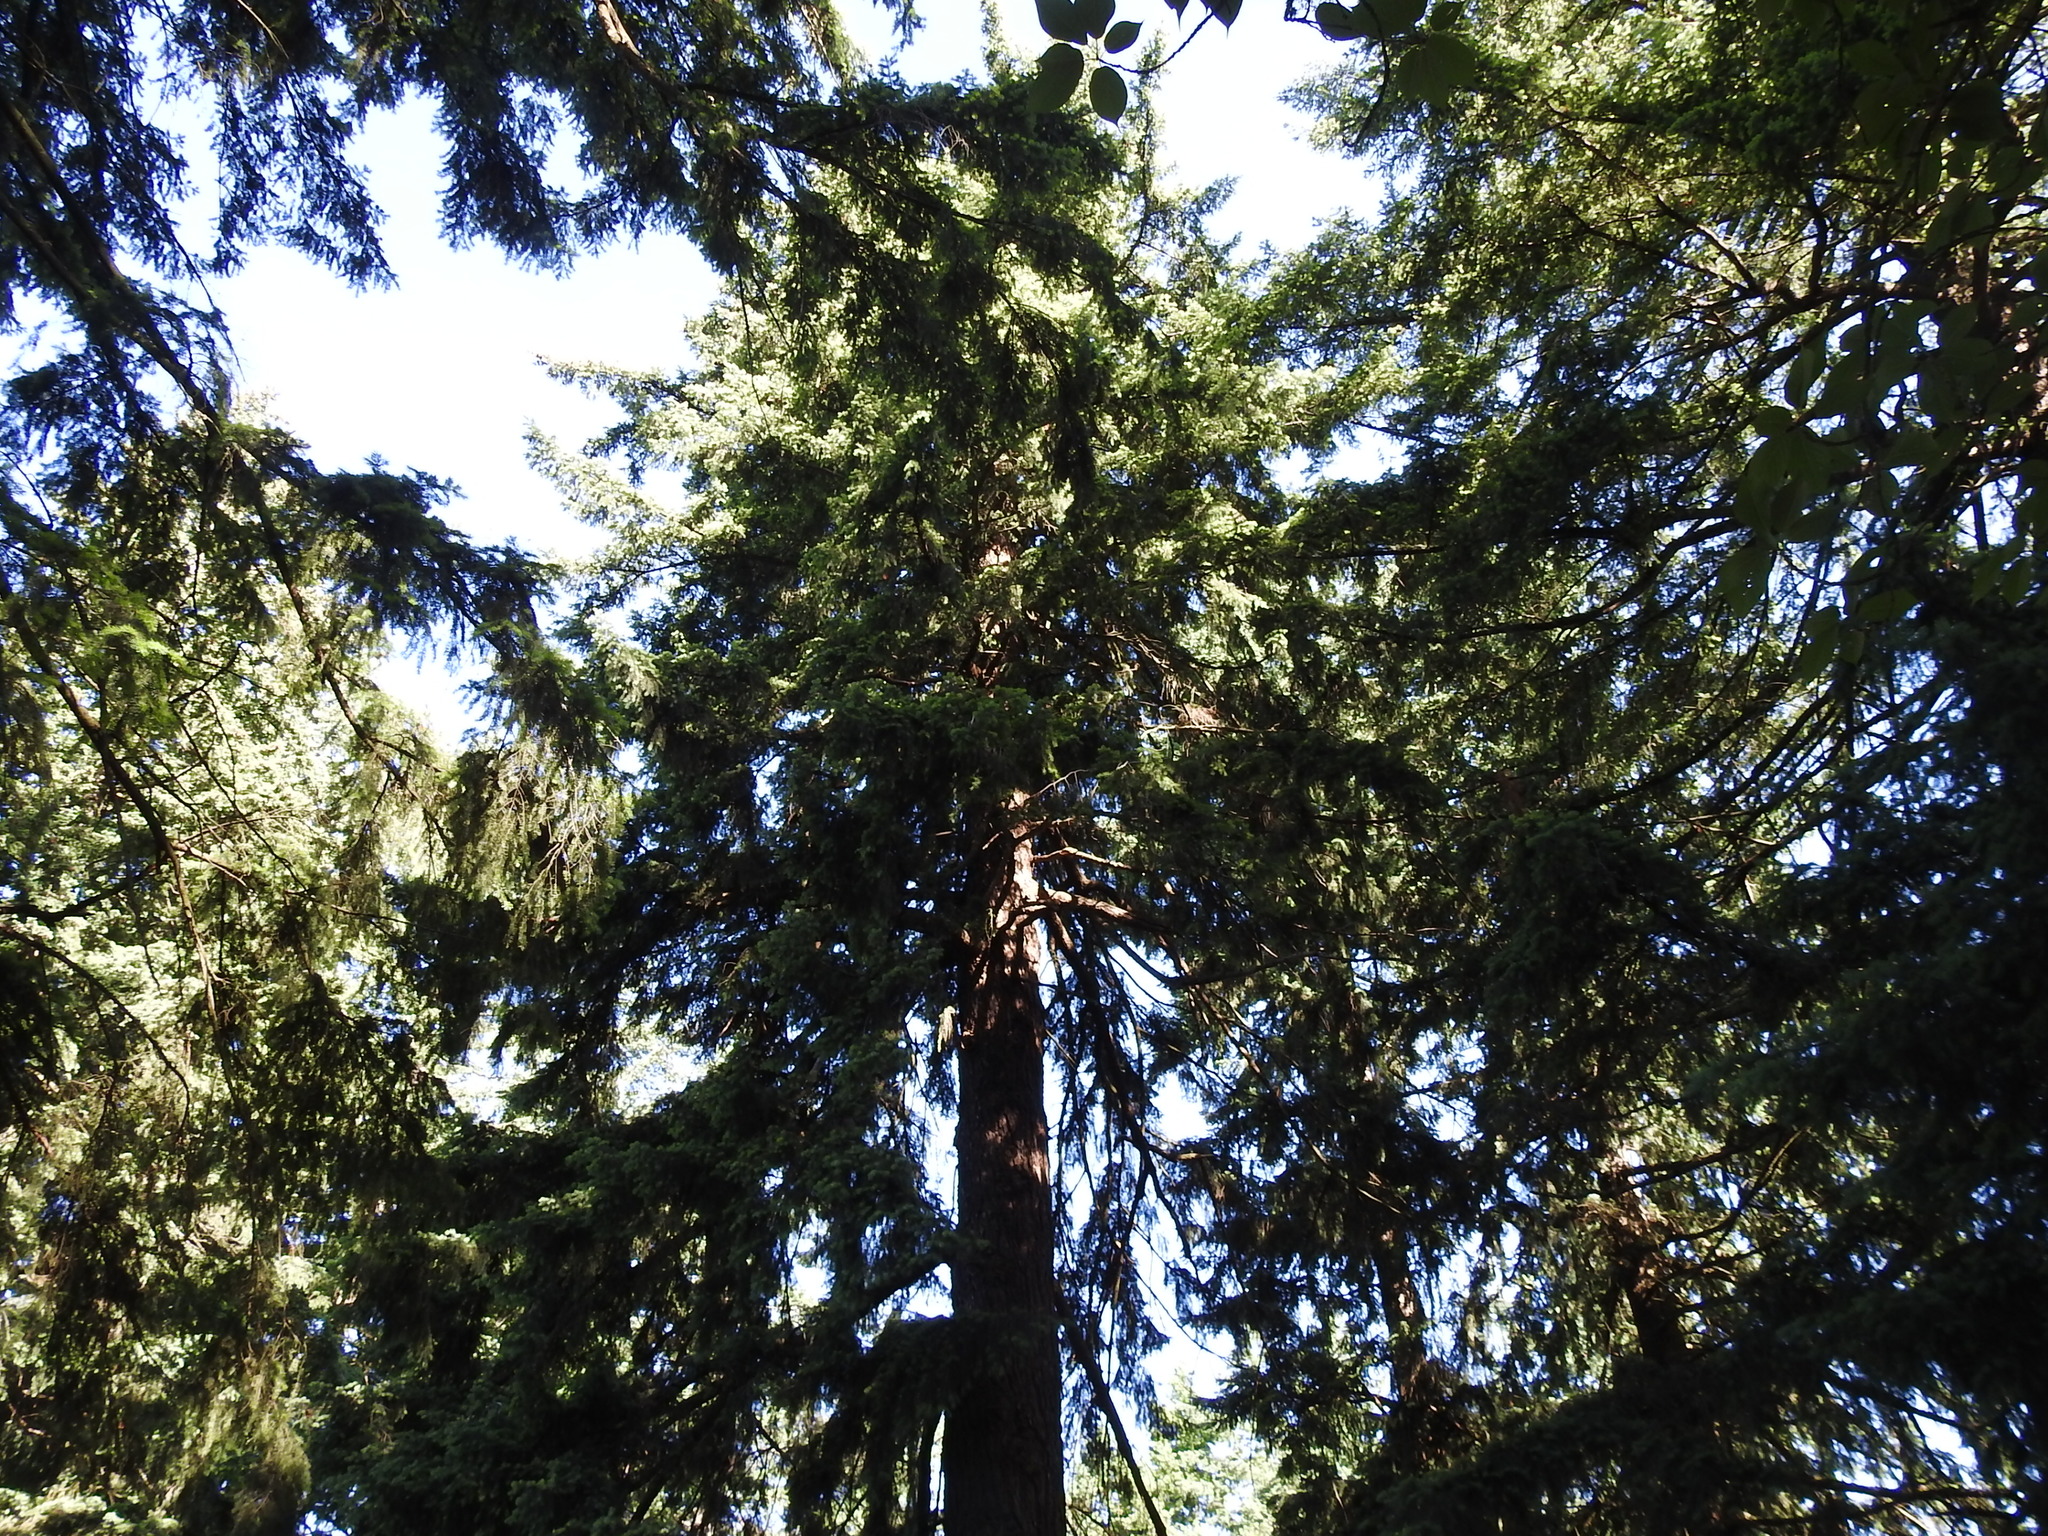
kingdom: Plantae
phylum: Tracheophyta
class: Pinopsida
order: Pinales
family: Pinaceae
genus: Pseudotsuga
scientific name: Pseudotsuga menziesii
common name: Douglas fir
